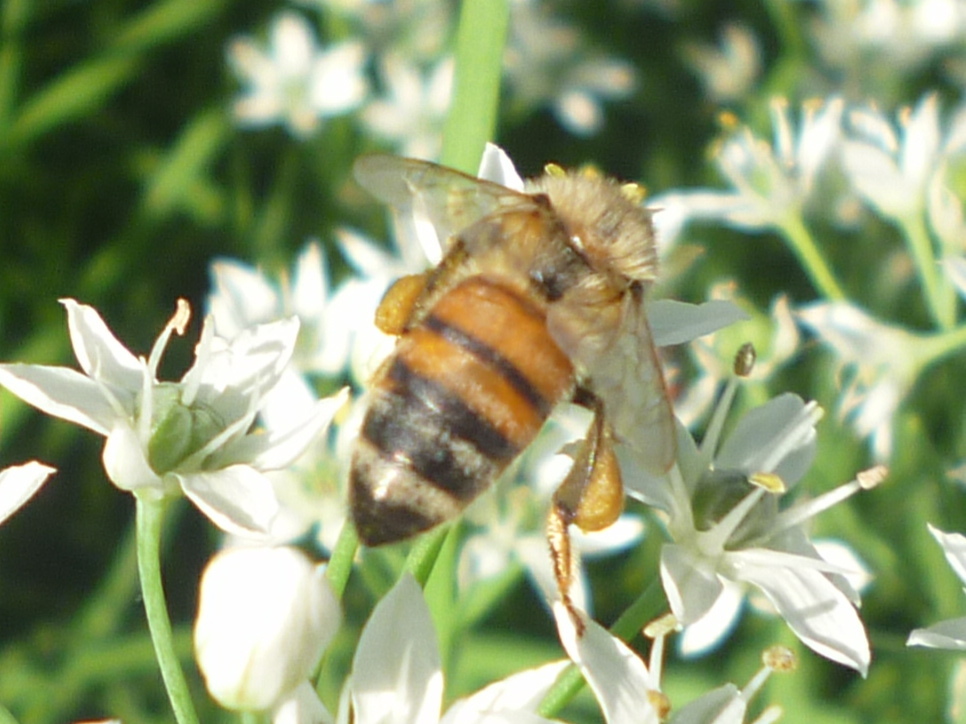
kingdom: Animalia
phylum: Arthropoda
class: Insecta
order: Hymenoptera
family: Apidae
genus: Apis
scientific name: Apis mellifera
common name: Honey bee
